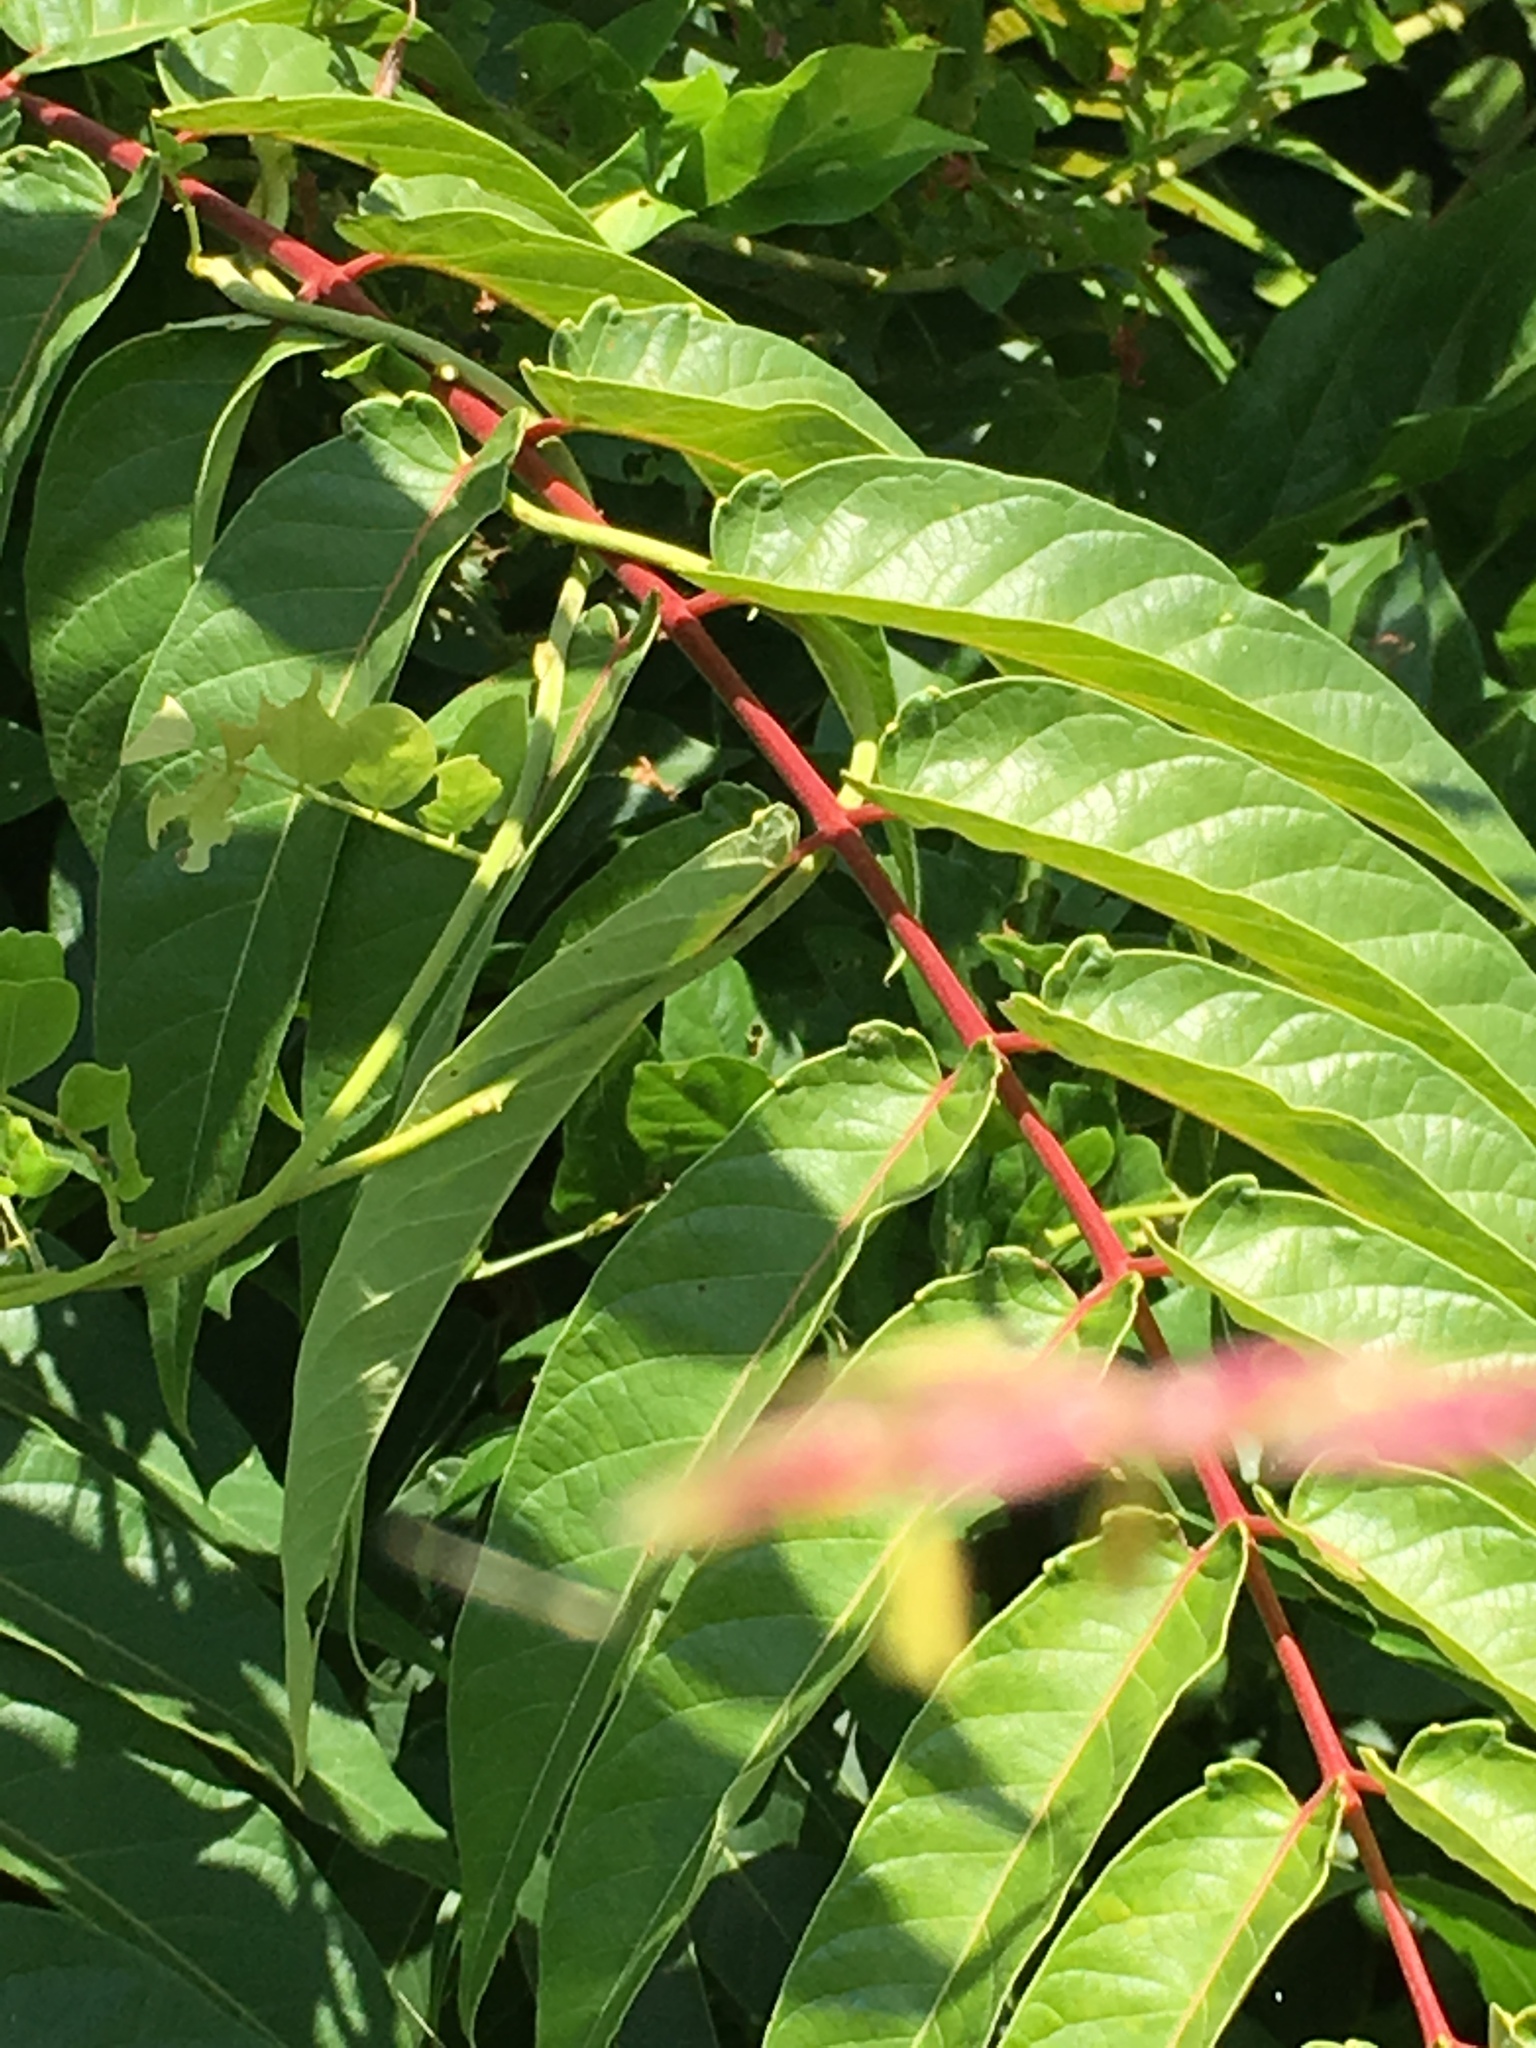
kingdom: Plantae
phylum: Tracheophyta
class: Magnoliopsida
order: Sapindales
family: Simaroubaceae
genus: Ailanthus
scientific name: Ailanthus altissima
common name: Tree-of-heaven
